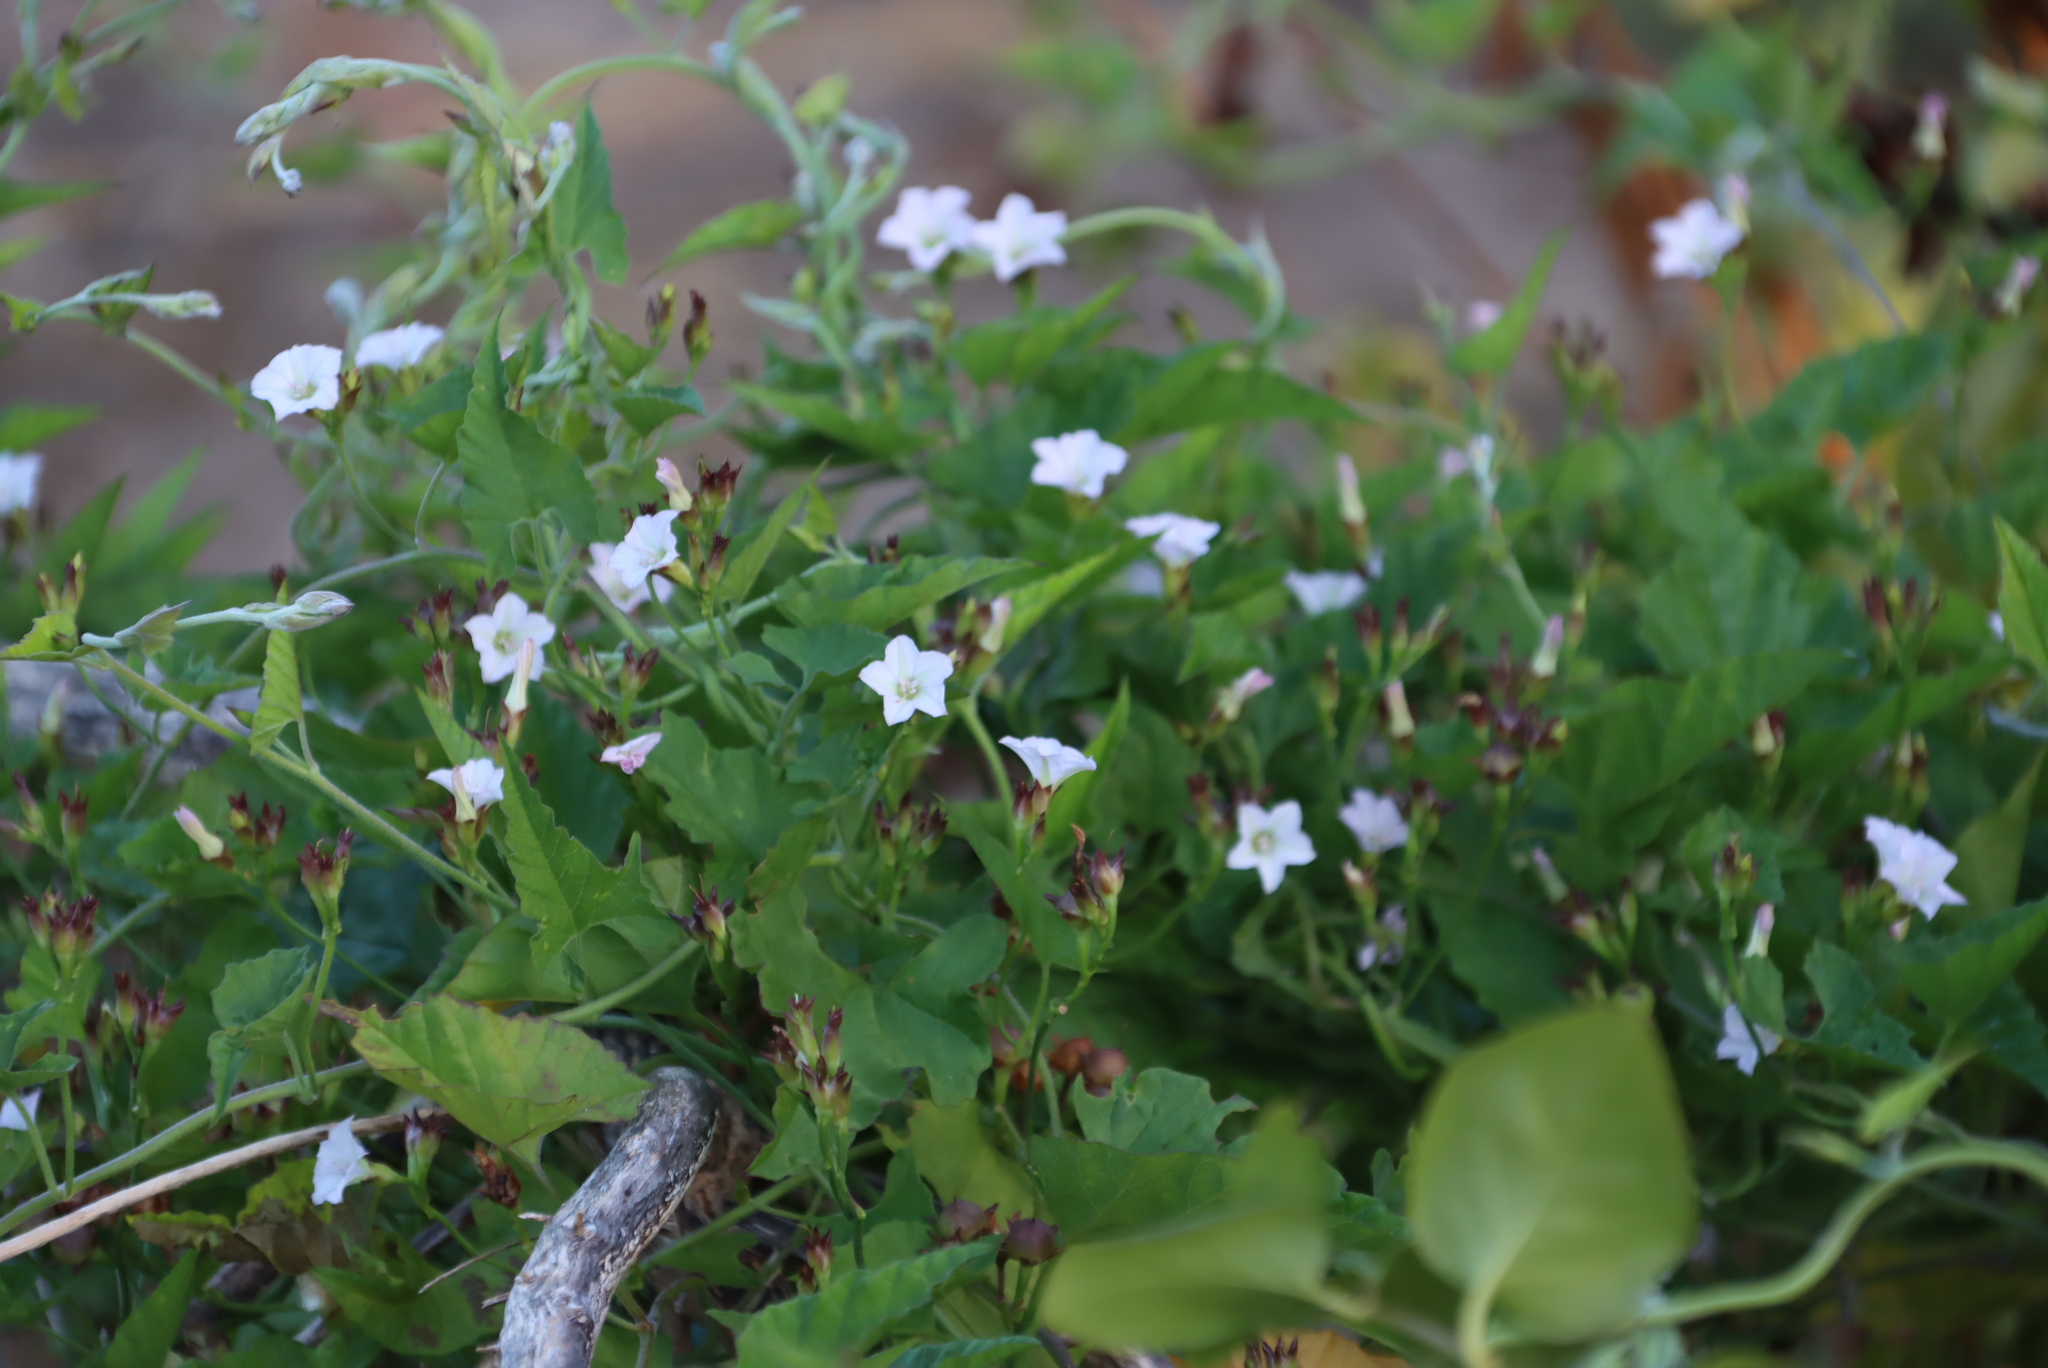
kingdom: Plantae
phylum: Tracheophyta
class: Magnoliopsida
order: Solanales
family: Convolvulaceae
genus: Convolvulus
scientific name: Convolvulus farinosus
